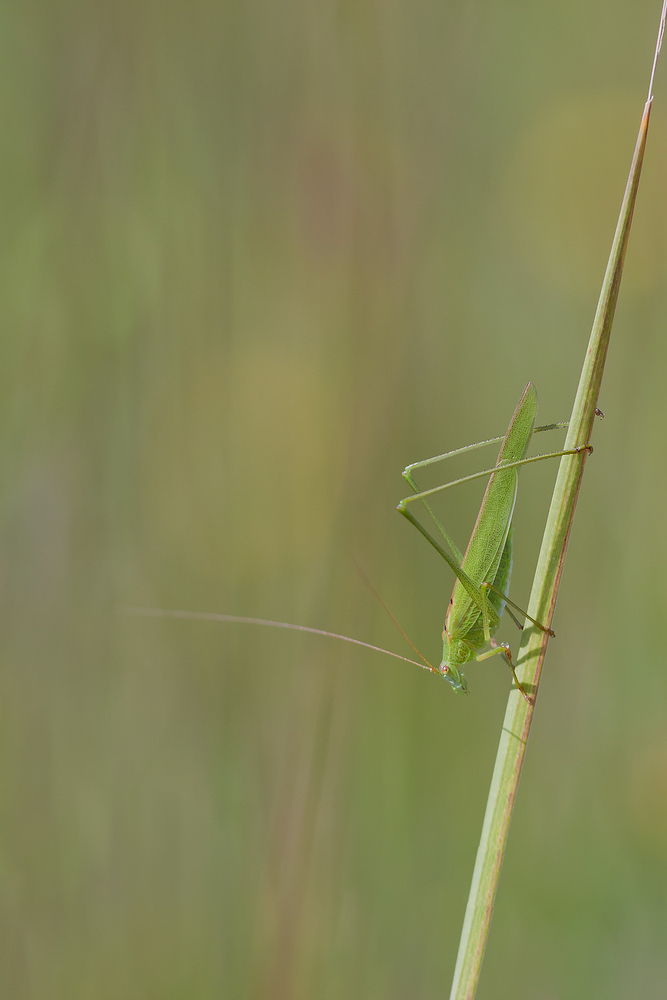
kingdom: Animalia
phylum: Arthropoda
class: Insecta
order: Orthoptera
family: Tettigoniidae
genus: Phaneroptera
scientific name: Phaneroptera falcata
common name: Sickle-bearing bush-cricket
